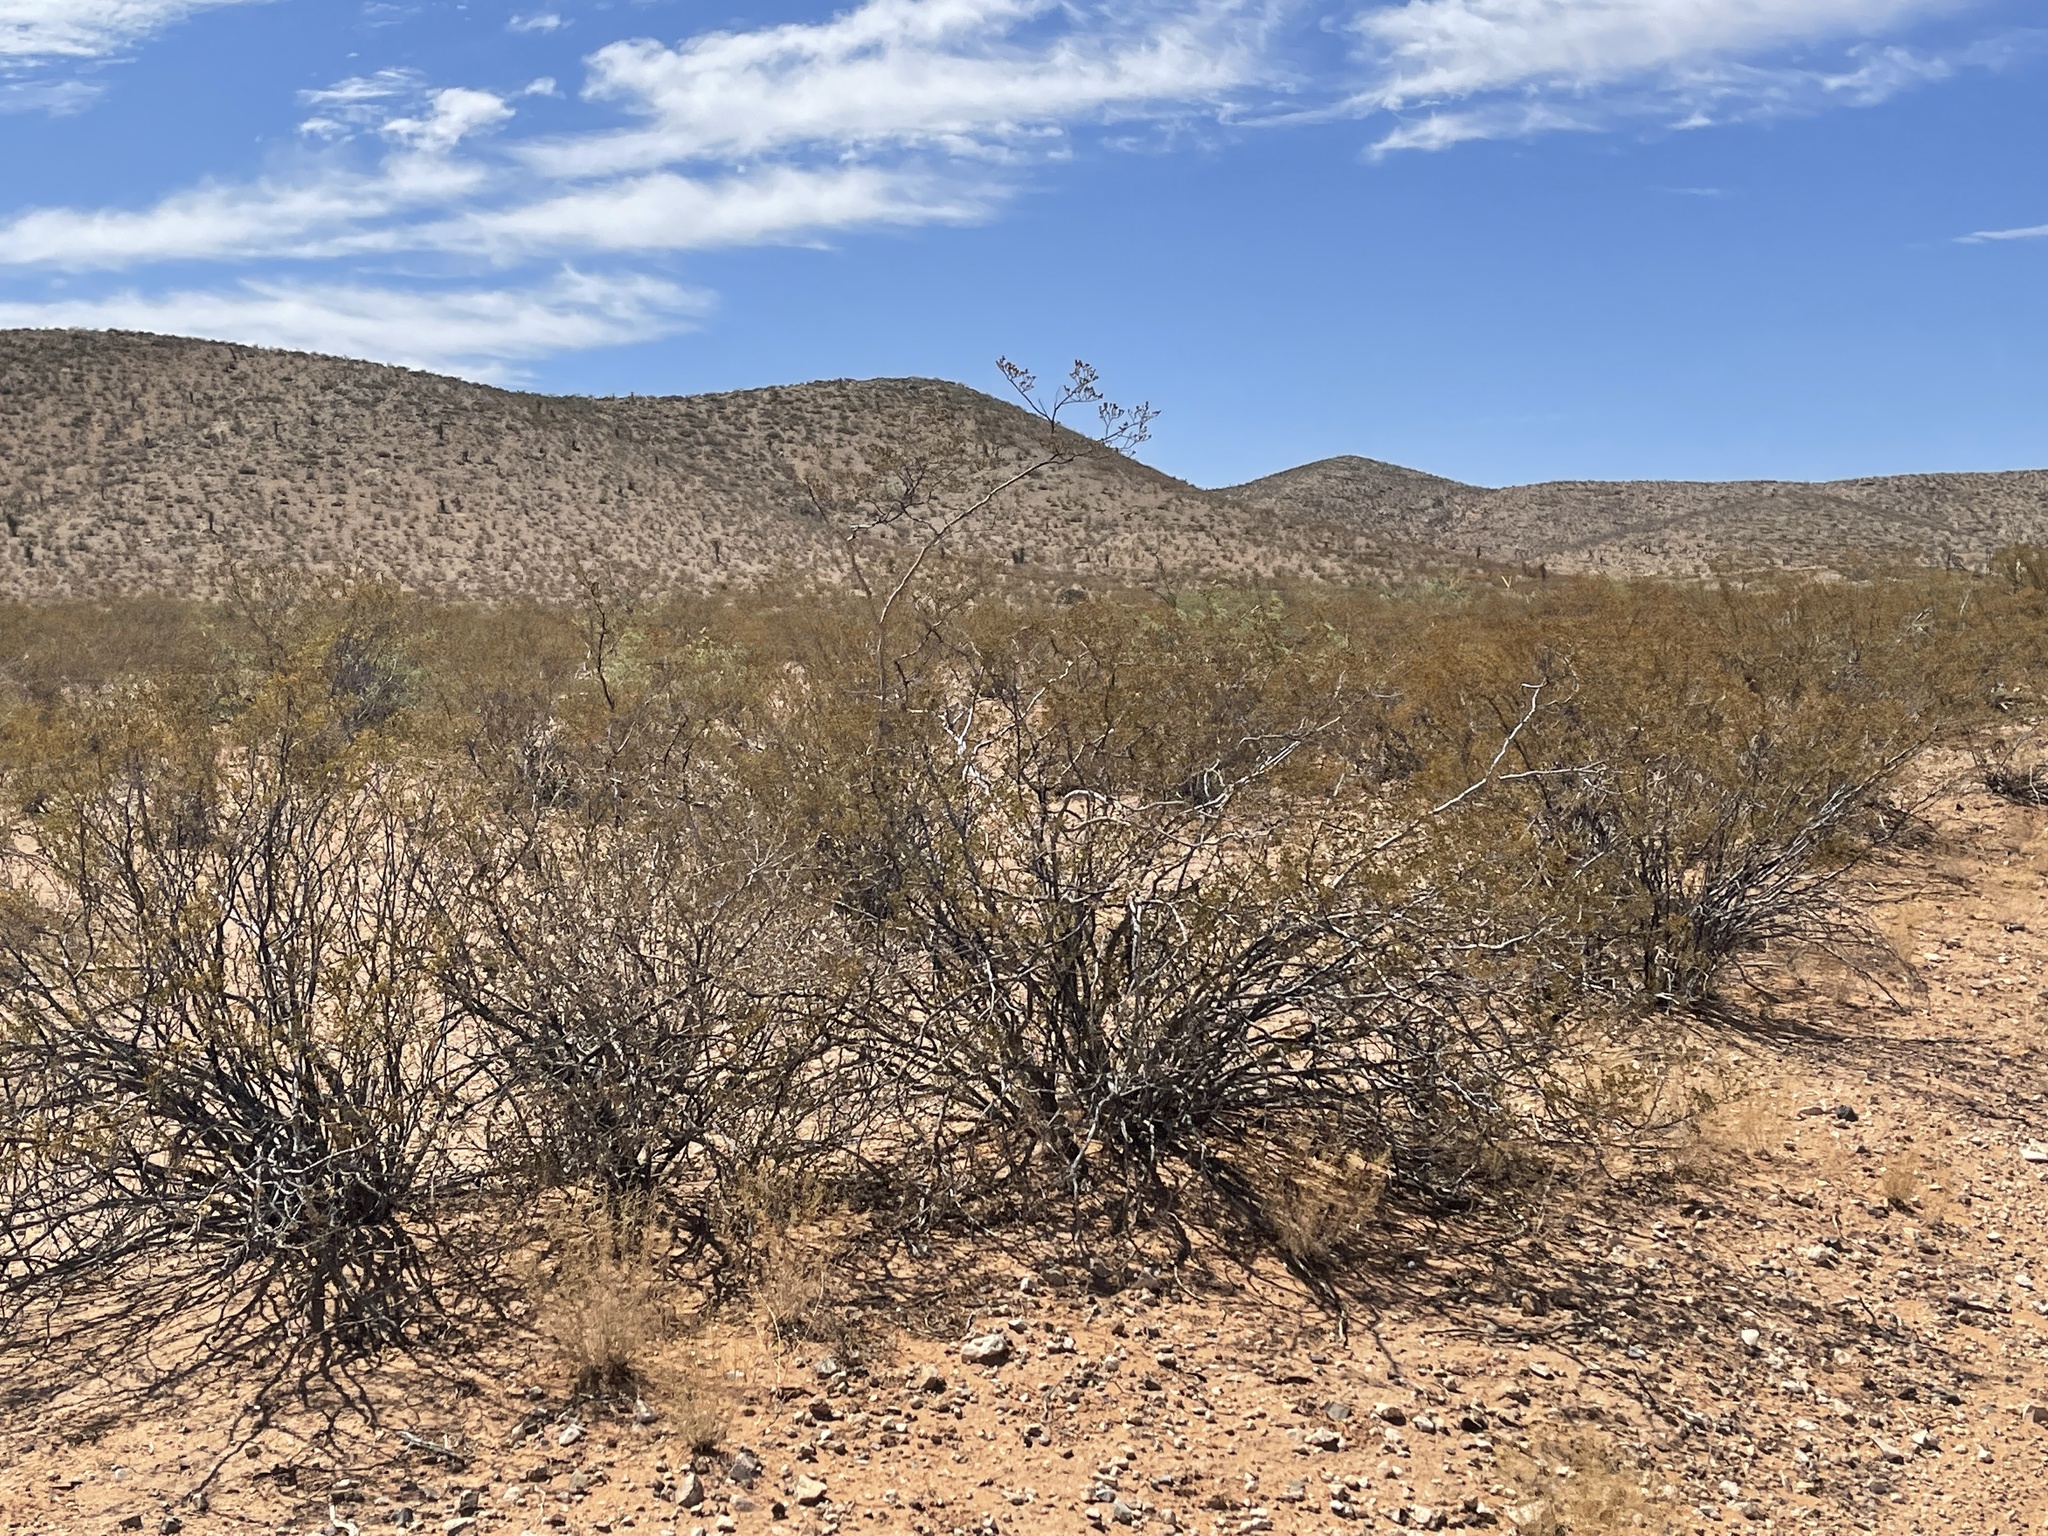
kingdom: Plantae
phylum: Tracheophyta
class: Magnoliopsida
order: Zygophyllales
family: Zygophyllaceae
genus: Larrea
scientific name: Larrea tridentata
